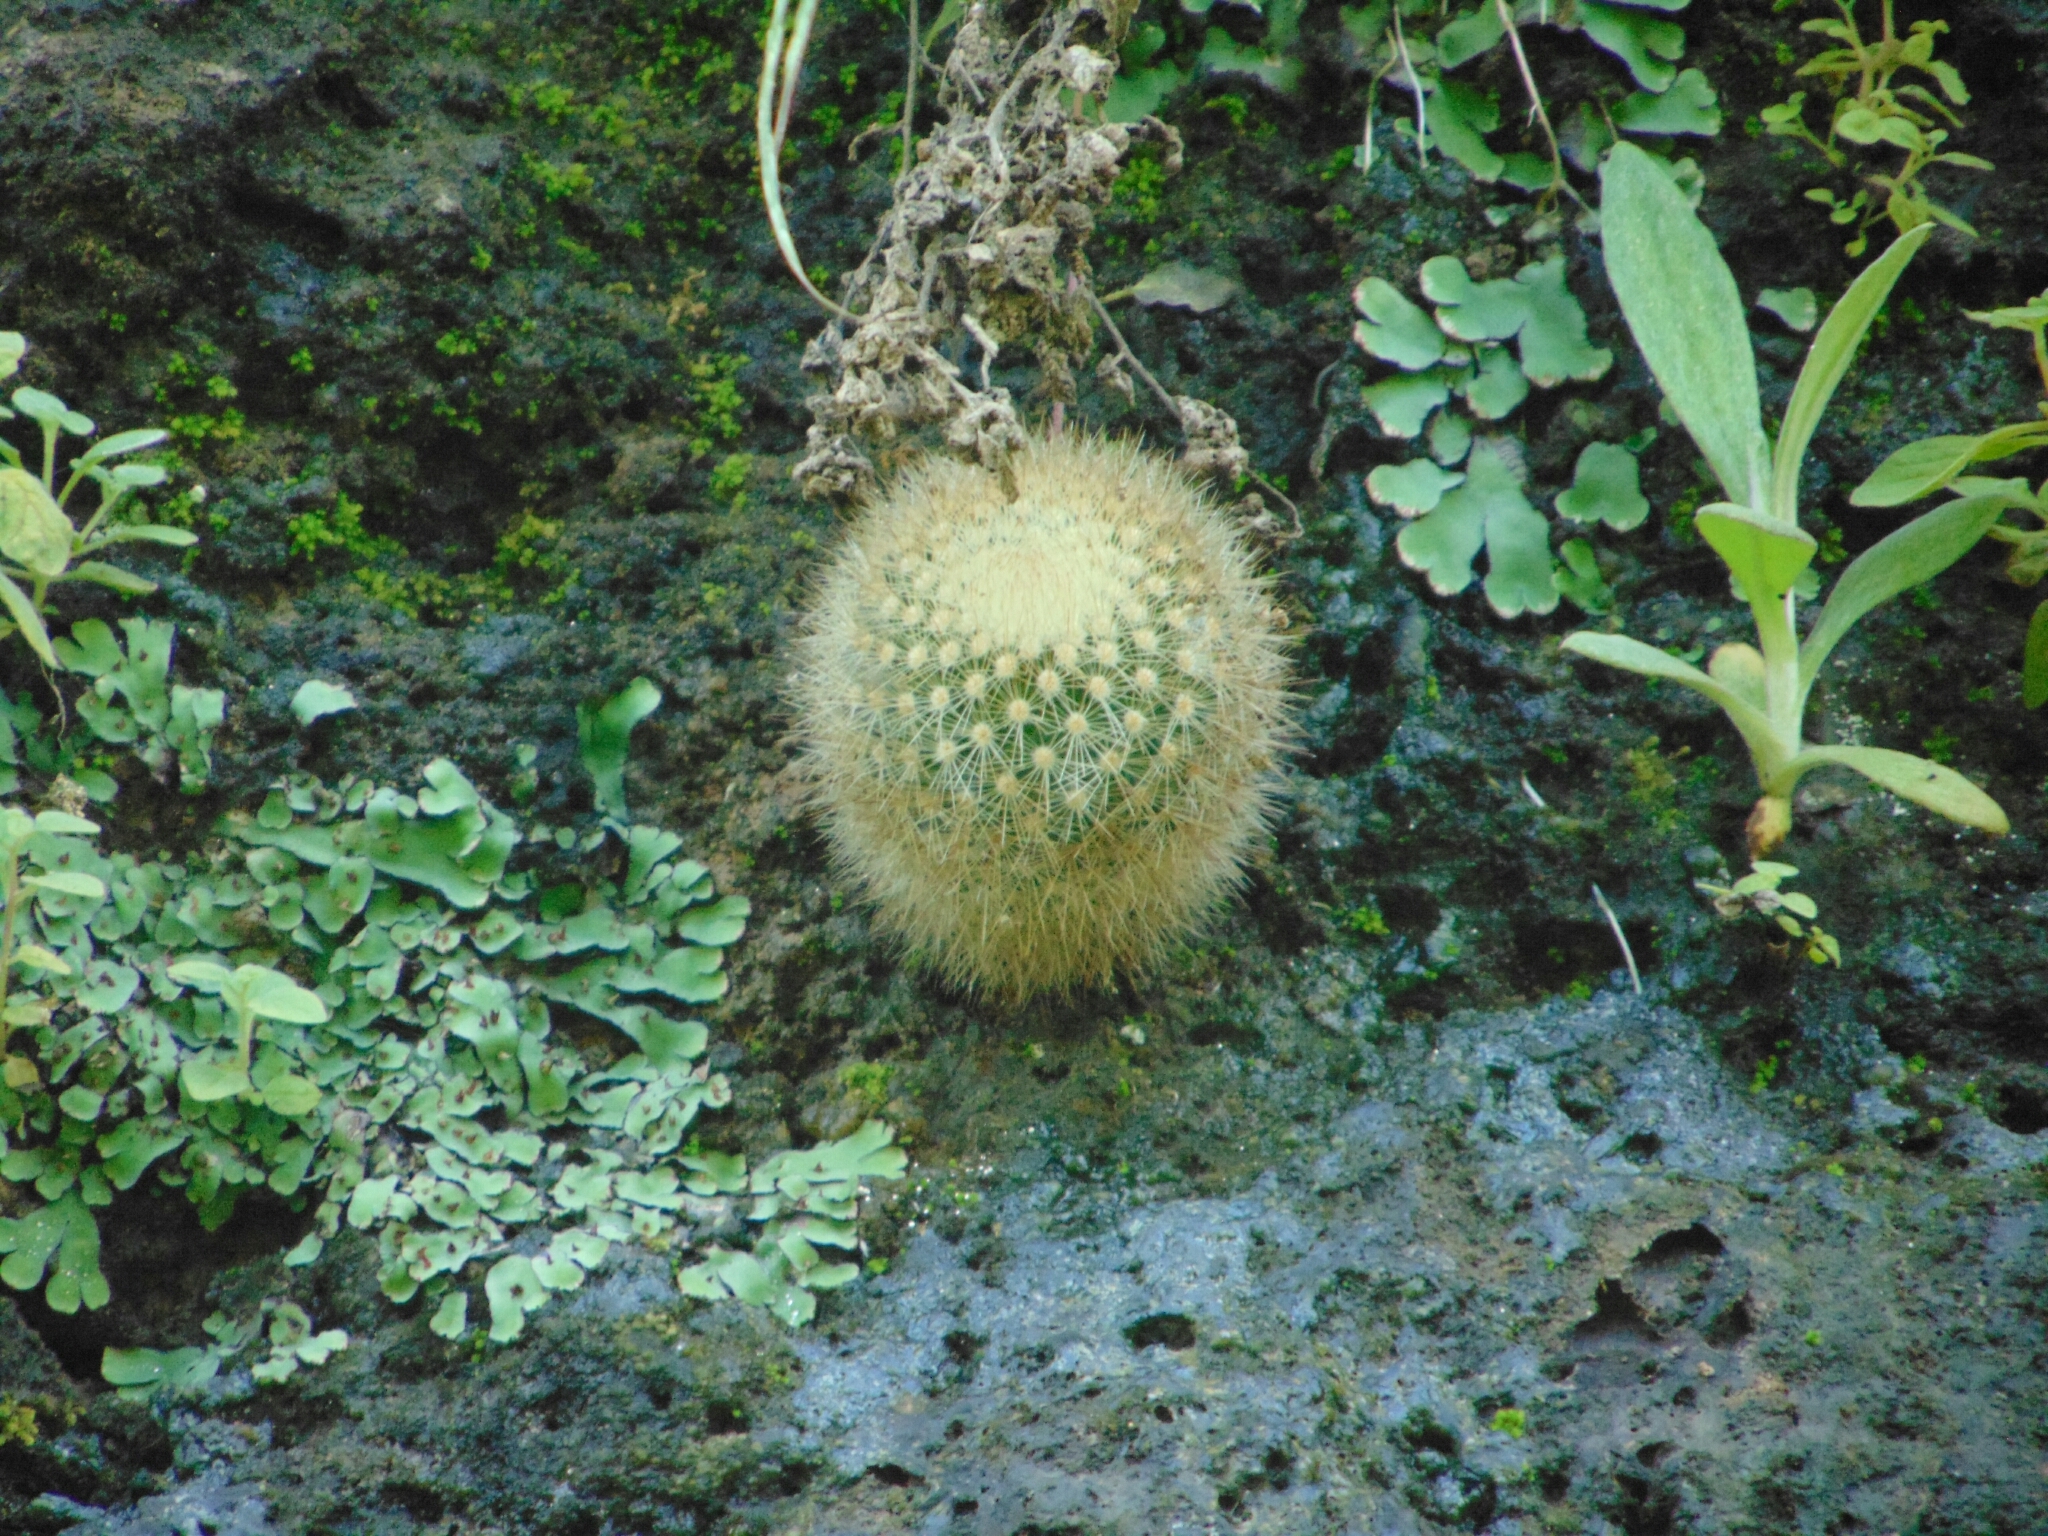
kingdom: Plantae
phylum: Tracheophyta
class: Magnoliopsida
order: Caryophyllales
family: Cactaceae
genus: Mammillaria
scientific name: Mammillaria spinosissima
